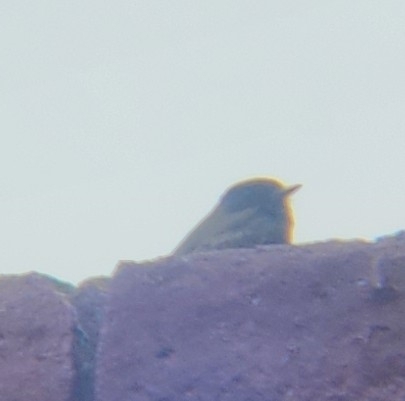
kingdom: Animalia
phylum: Chordata
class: Aves
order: Passeriformes
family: Tyrannidae
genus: Sayornis
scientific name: Sayornis nigricans
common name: Black phoebe
